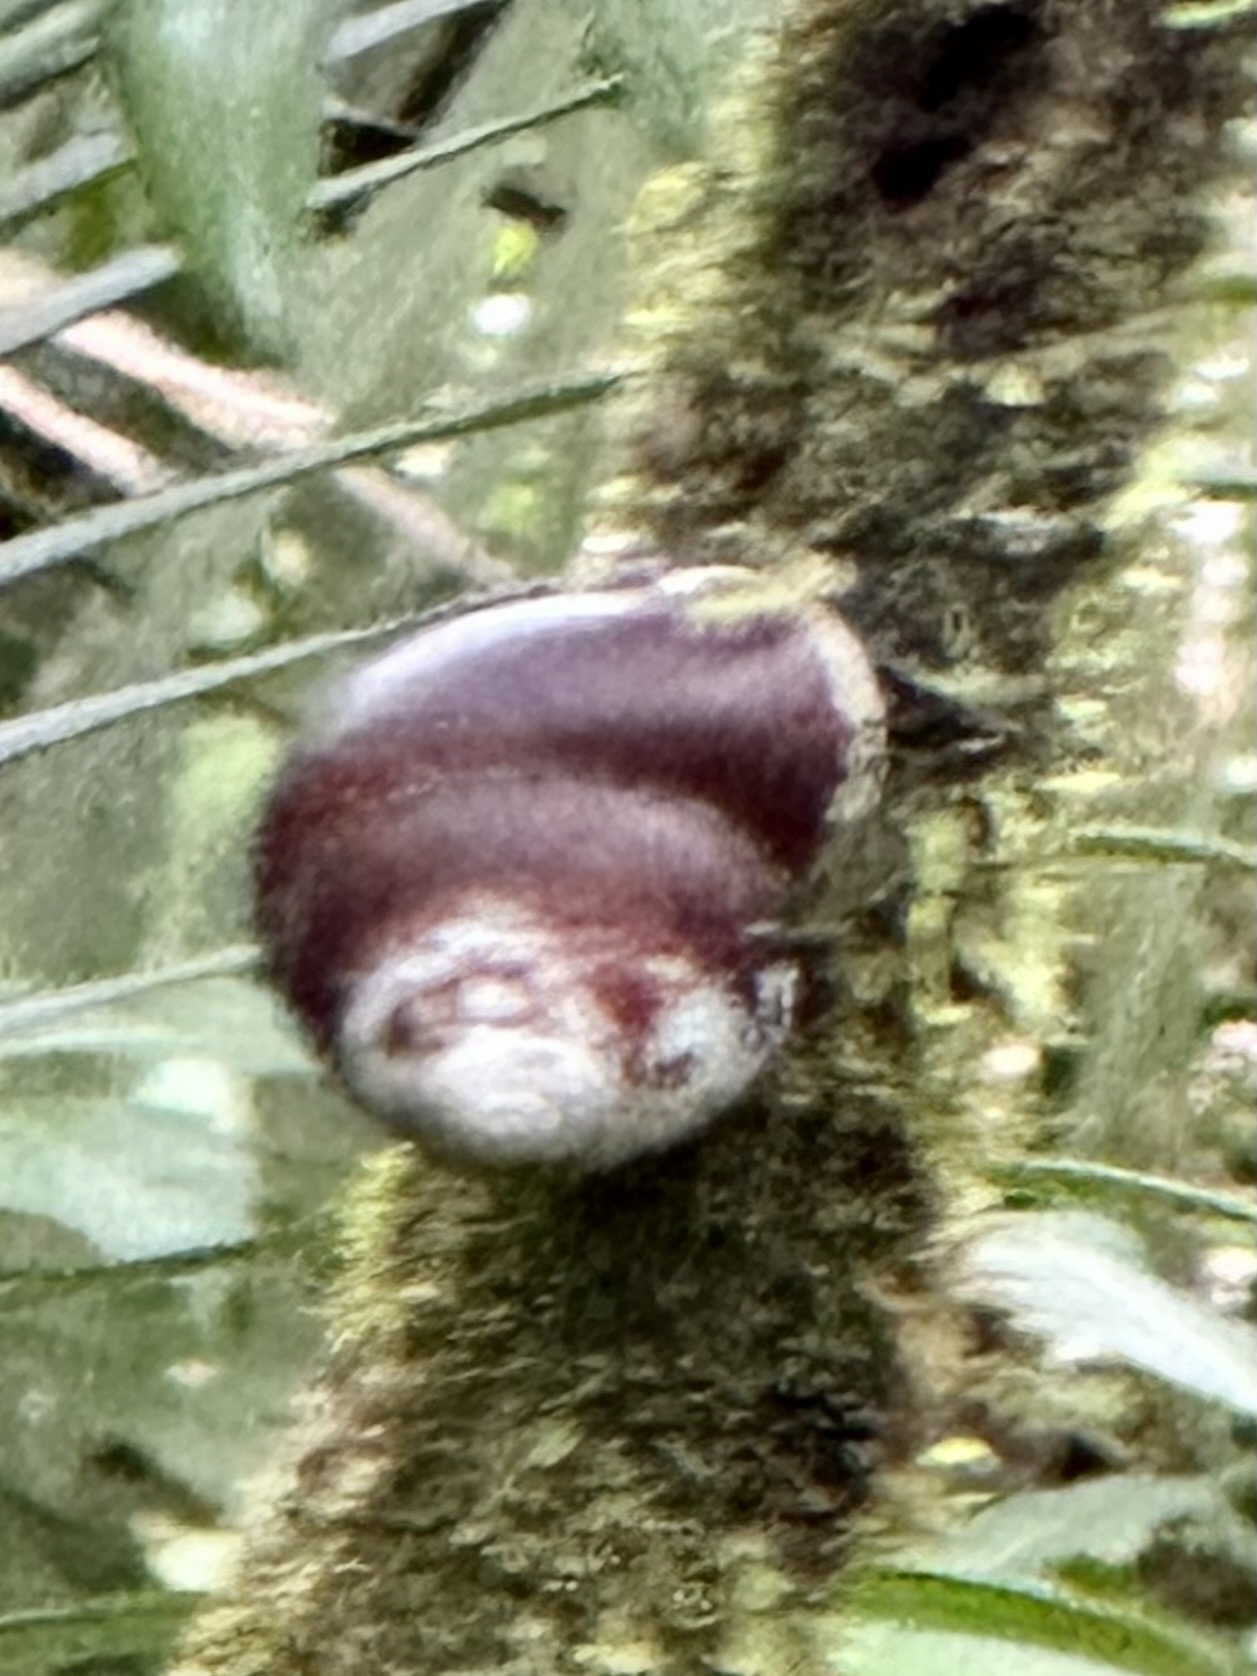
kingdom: Animalia
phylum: Mollusca
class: Gastropoda
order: Stylommatophora
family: Sagdidae
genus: Polydontes
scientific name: Polydontes luquillensis
